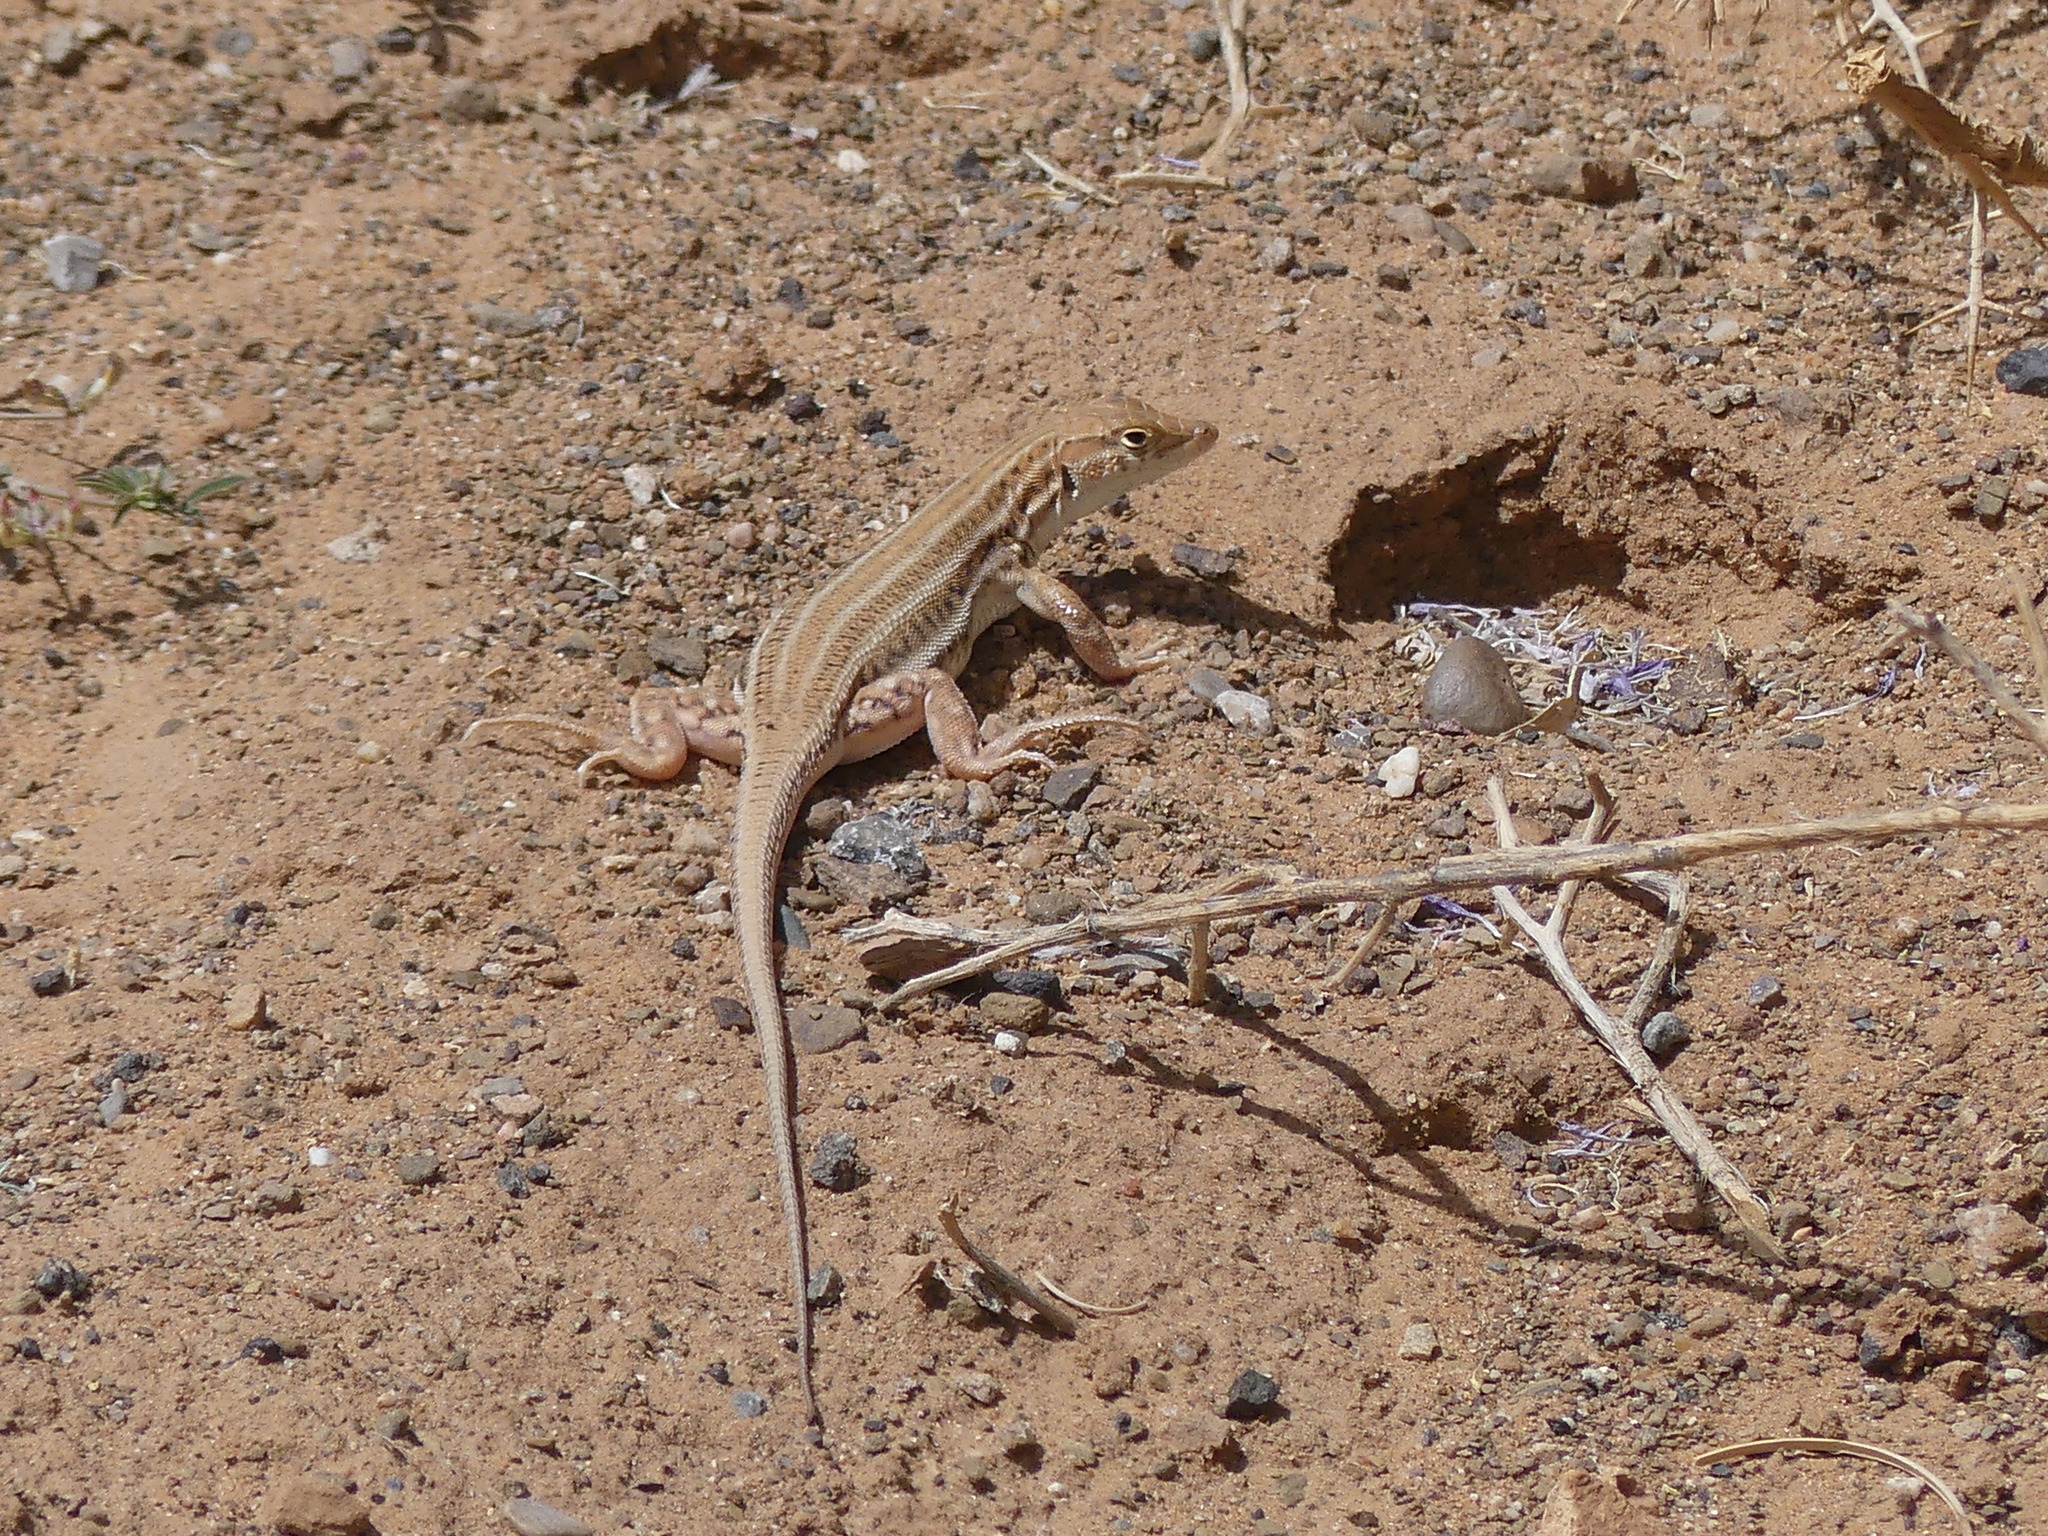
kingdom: Animalia
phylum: Chordata
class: Squamata
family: Lacertidae
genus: Acanthodactylus
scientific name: Acanthodactylus boskianus
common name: Bosc’s fringe-toed lizard
